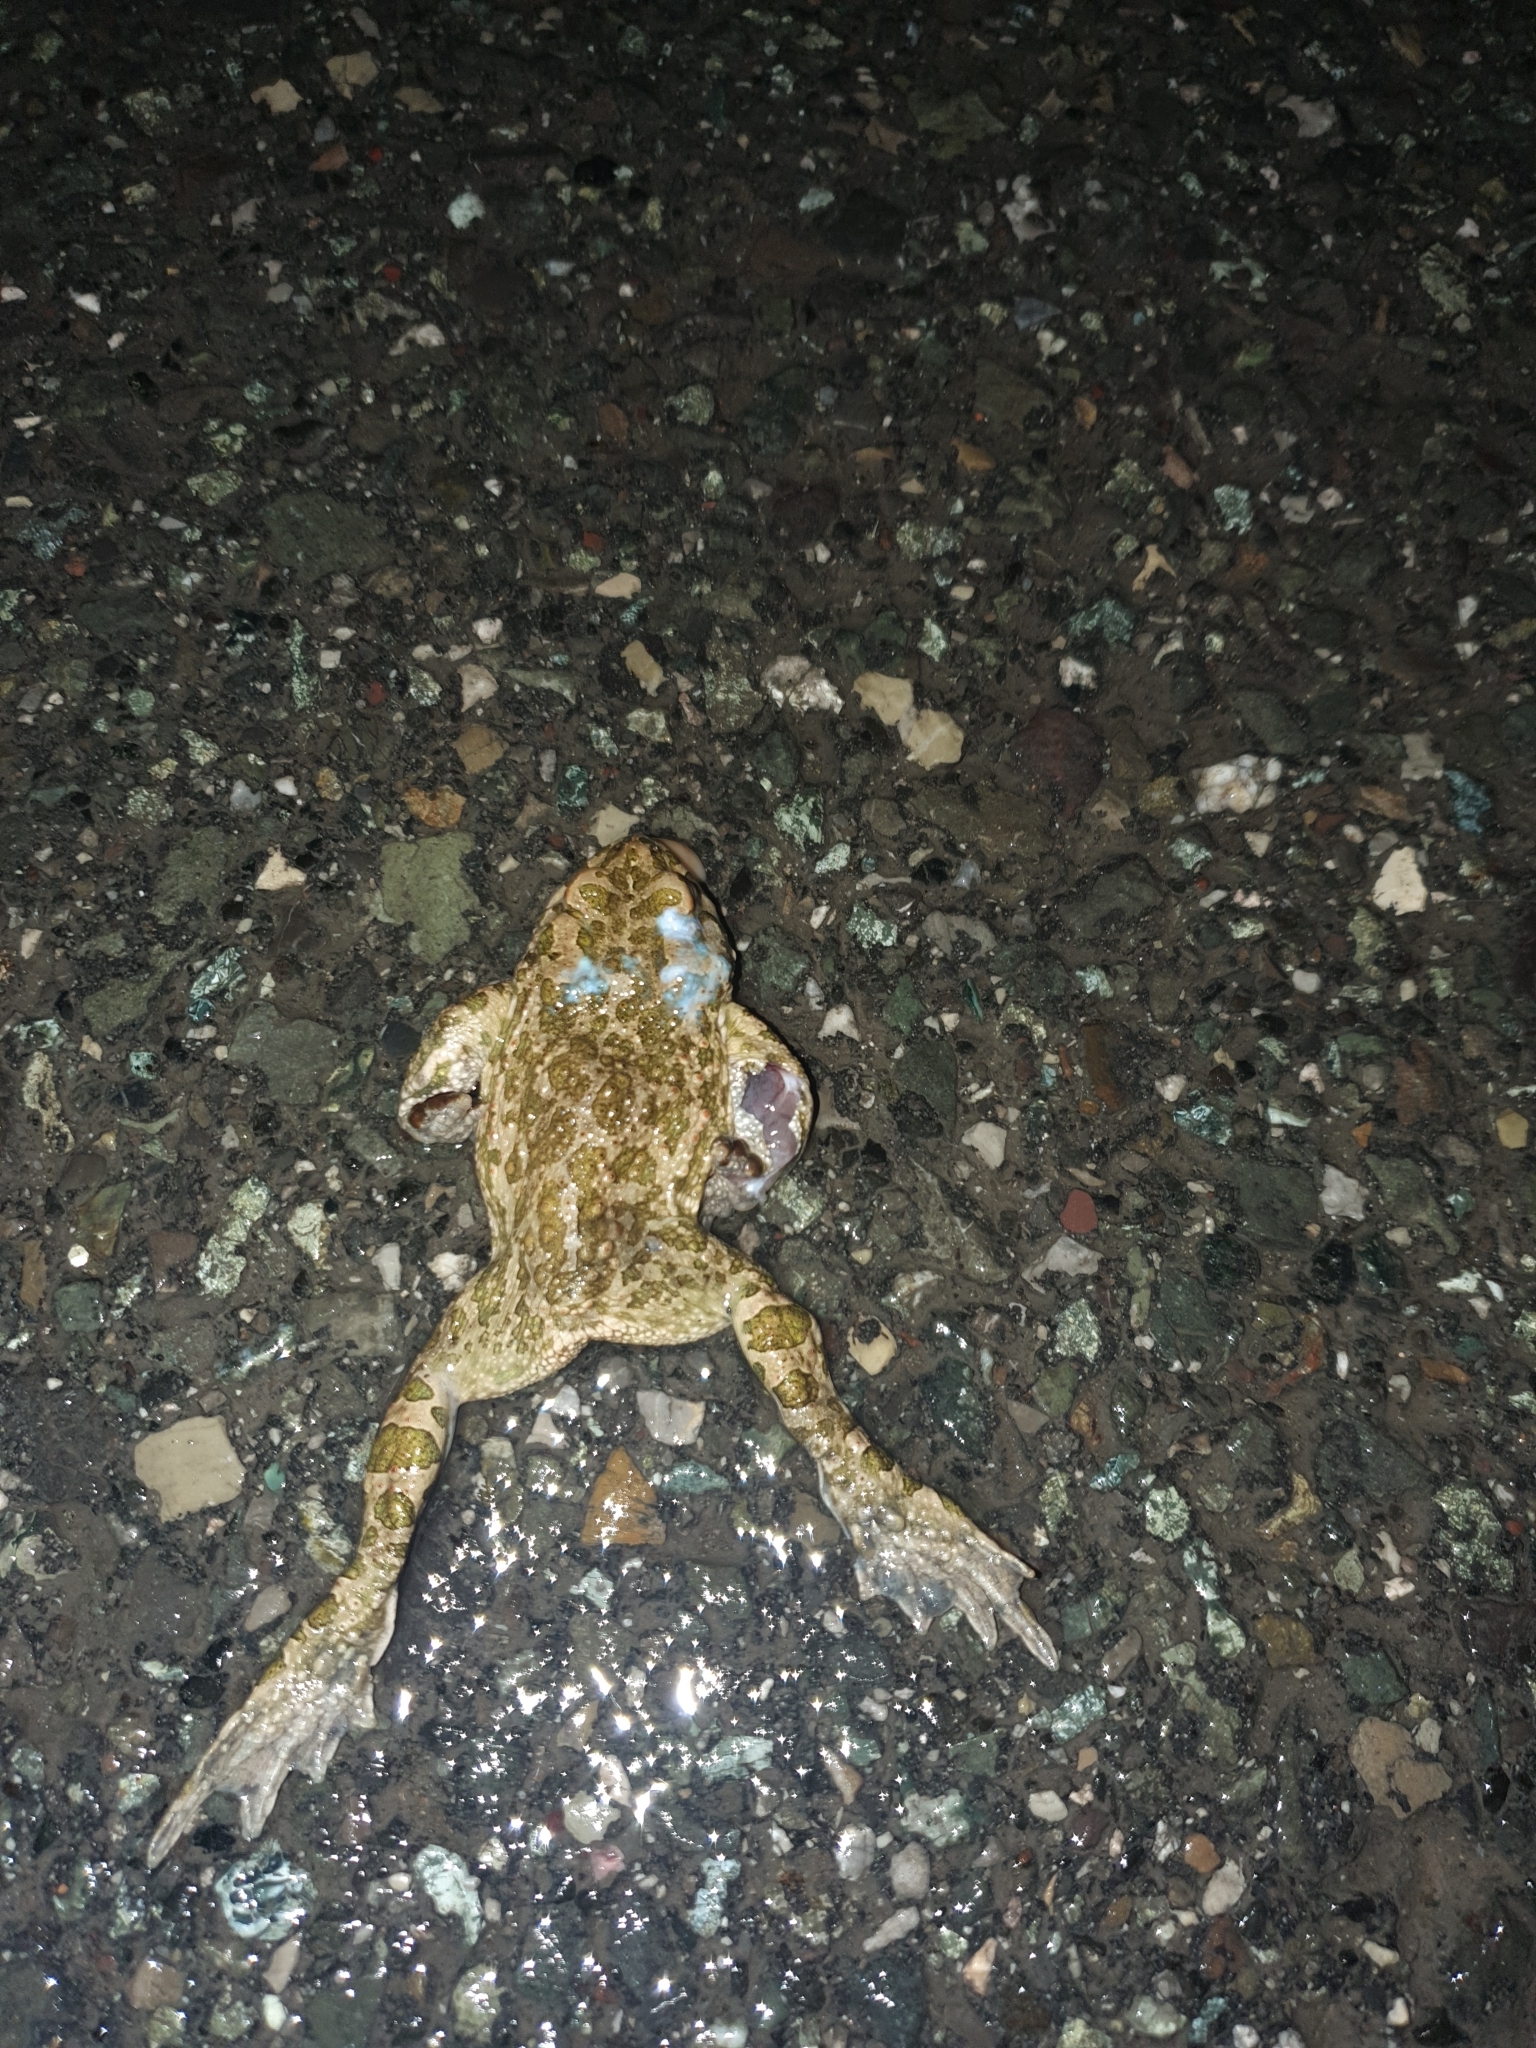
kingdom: Animalia
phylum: Chordata
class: Amphibia
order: Anura
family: Bufonidae
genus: Bufotes
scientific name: Bufotes viridis
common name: European green toad
